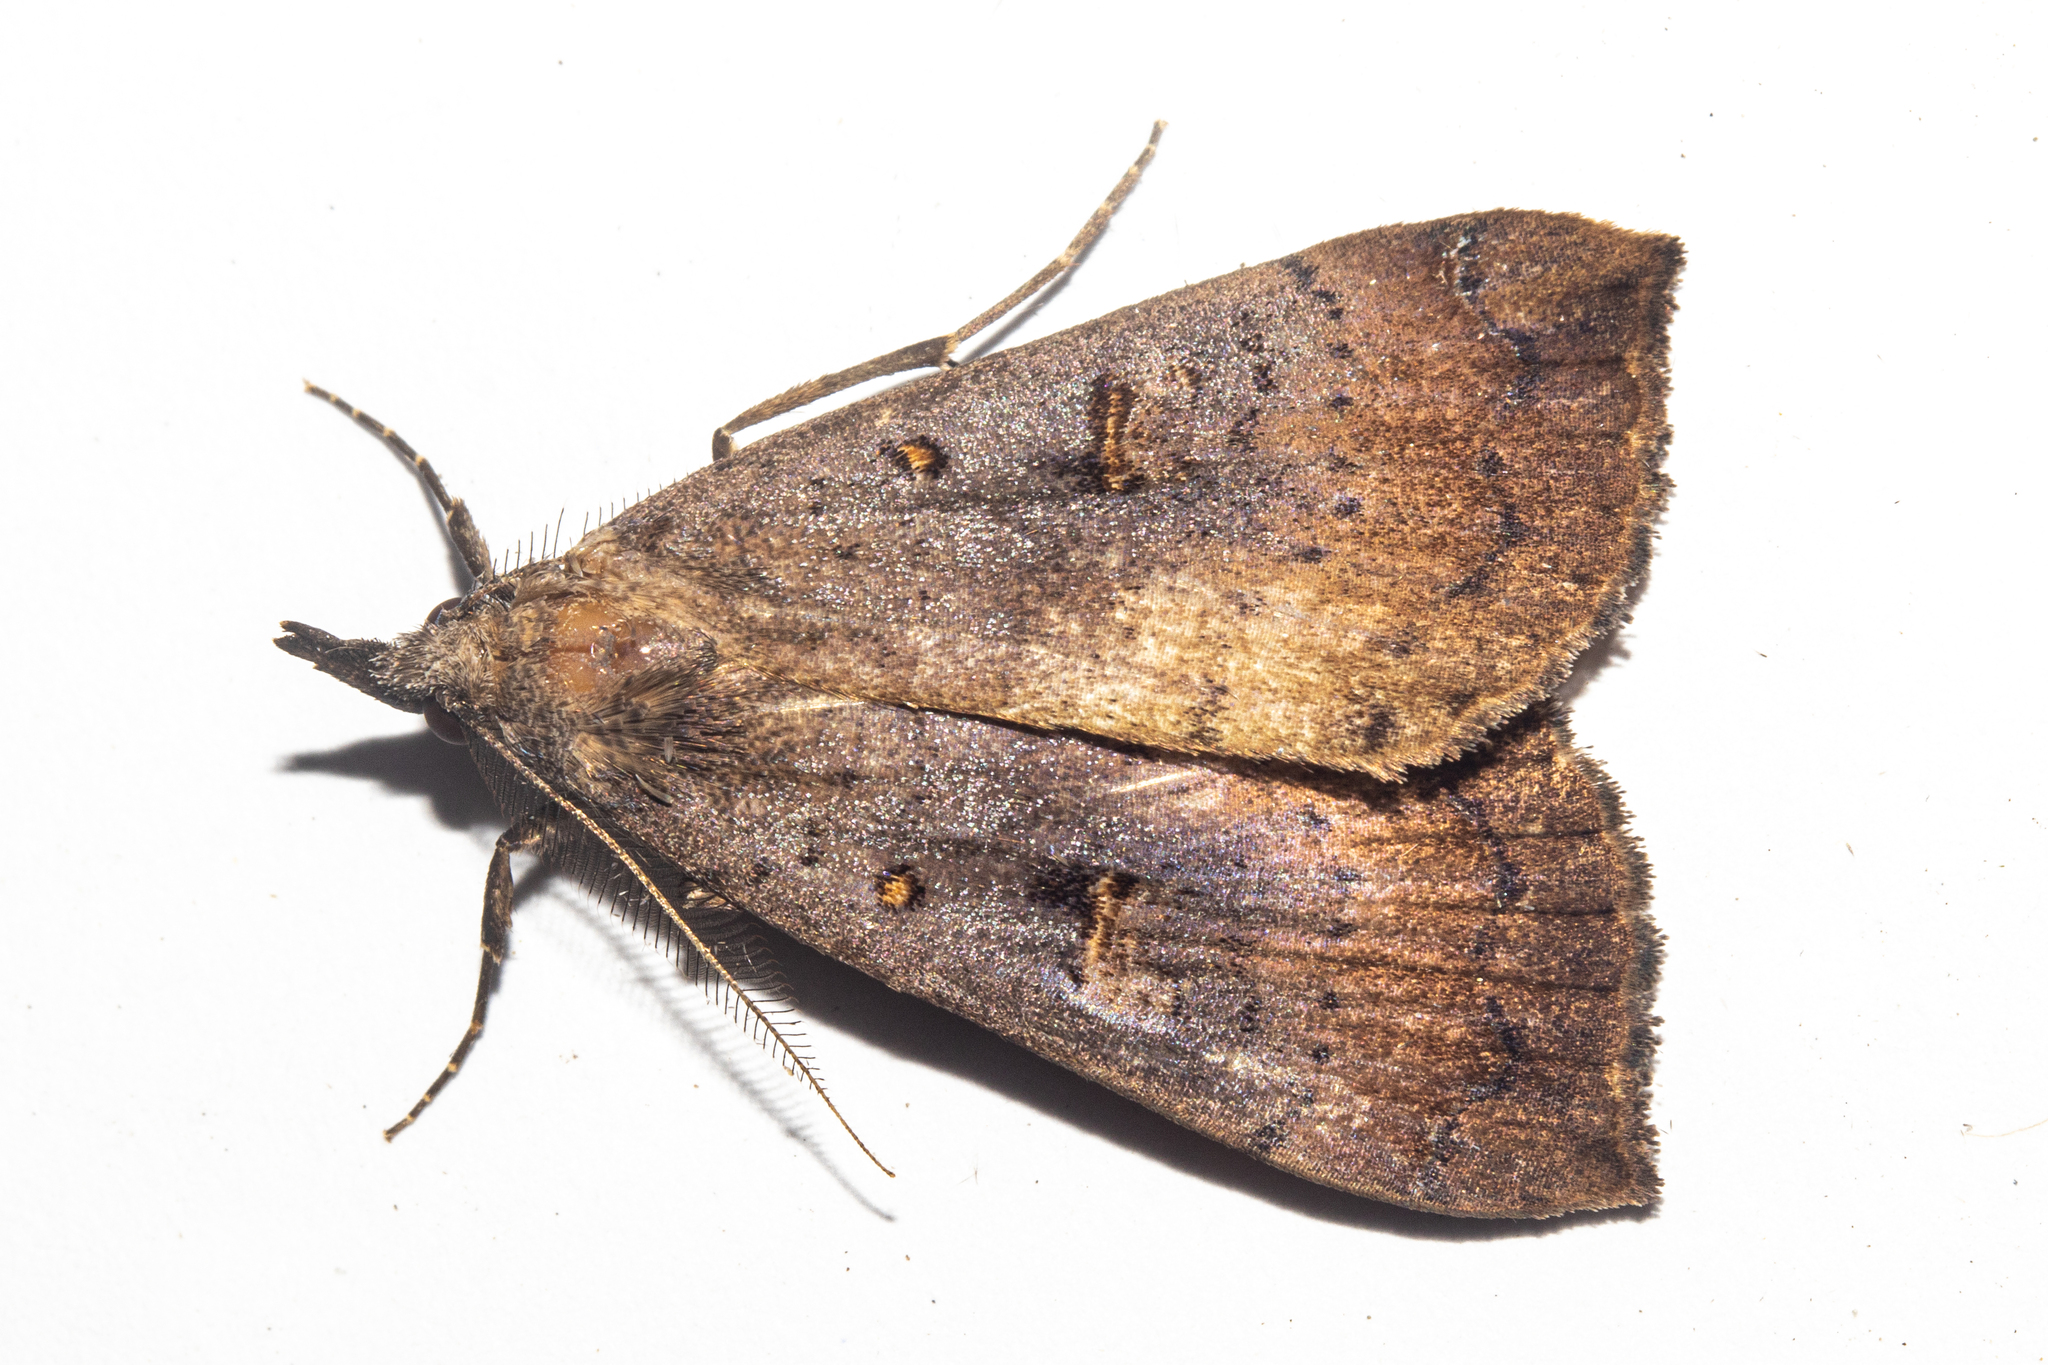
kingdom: Animalia
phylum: Arthropoda
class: Insecta
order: Lepidoptera
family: Erebidae
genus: Rhapsa
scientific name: Rhapsa scotosialis
